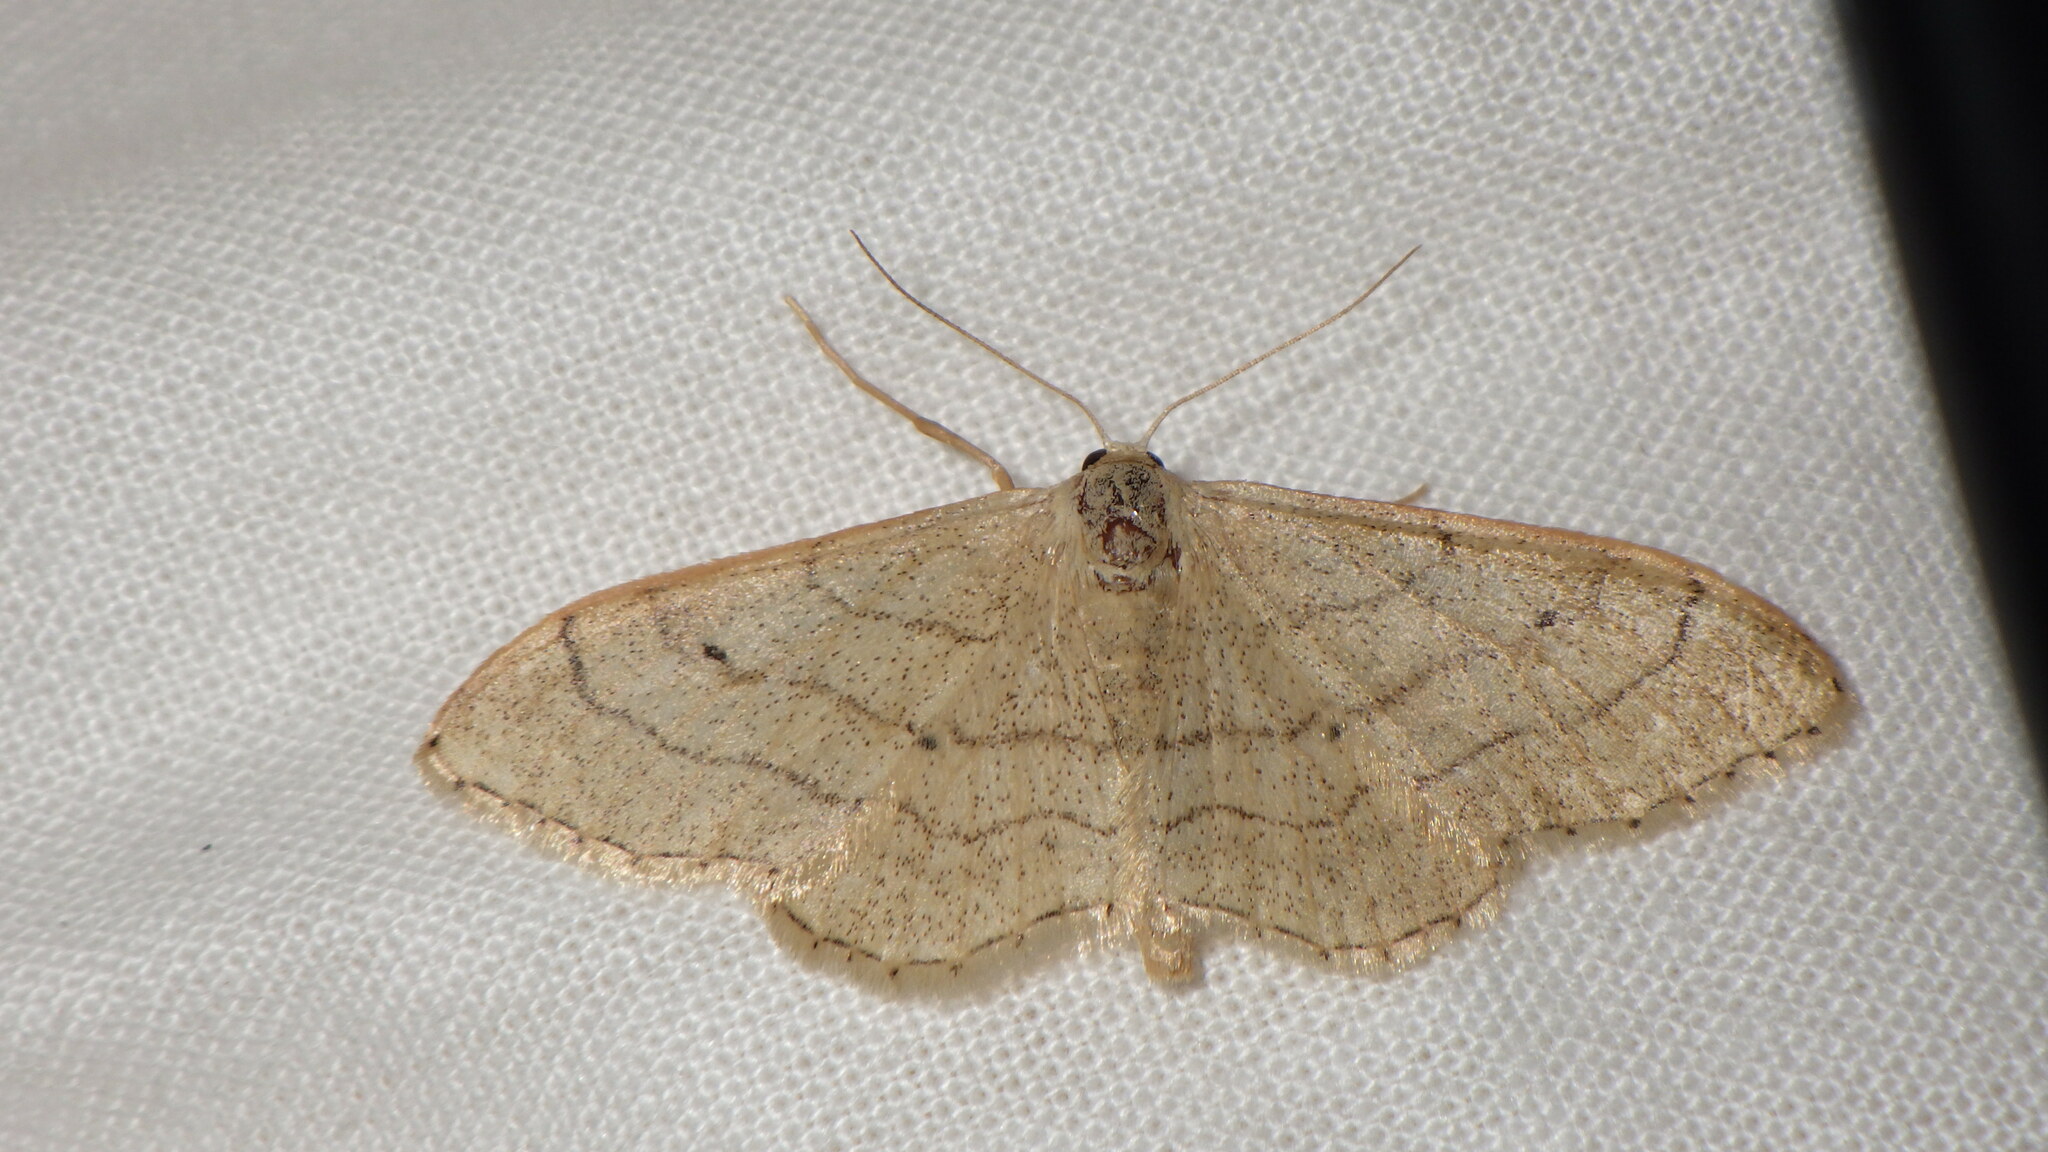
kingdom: Animalia
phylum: Arthropoda
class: Insecta
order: Lepidoptera
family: Geometridae
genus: Idaea
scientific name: Idaea aversata
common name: Riband wave
